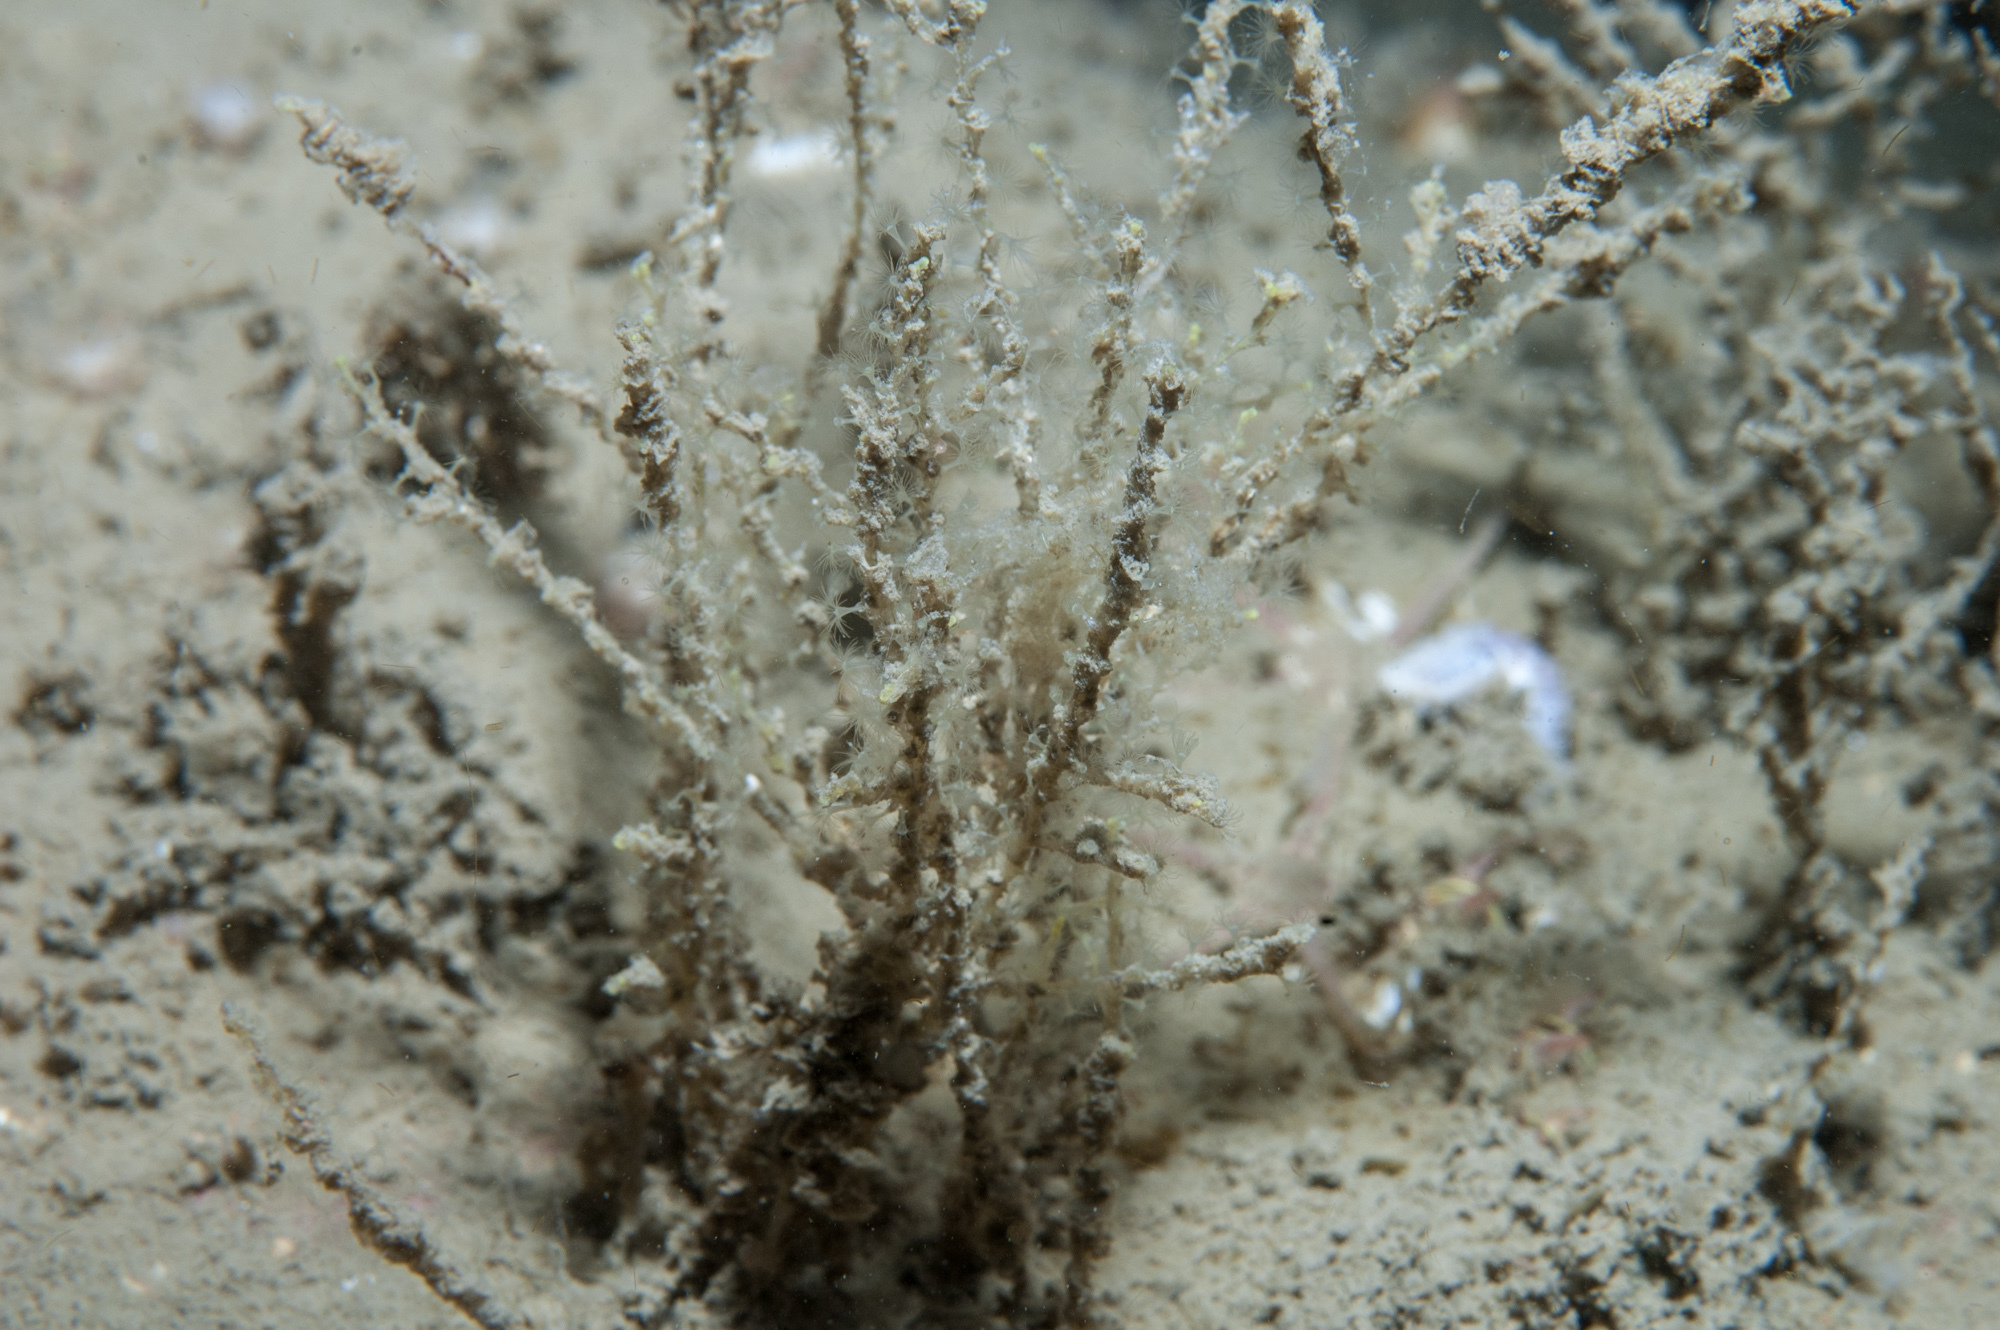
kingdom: Animalia
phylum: Cnidaria
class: Hydrozoa
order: Leptothecata
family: Sertularellidae
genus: Sertularella
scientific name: Sertularella polyzonias
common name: Great tooth hydroid
